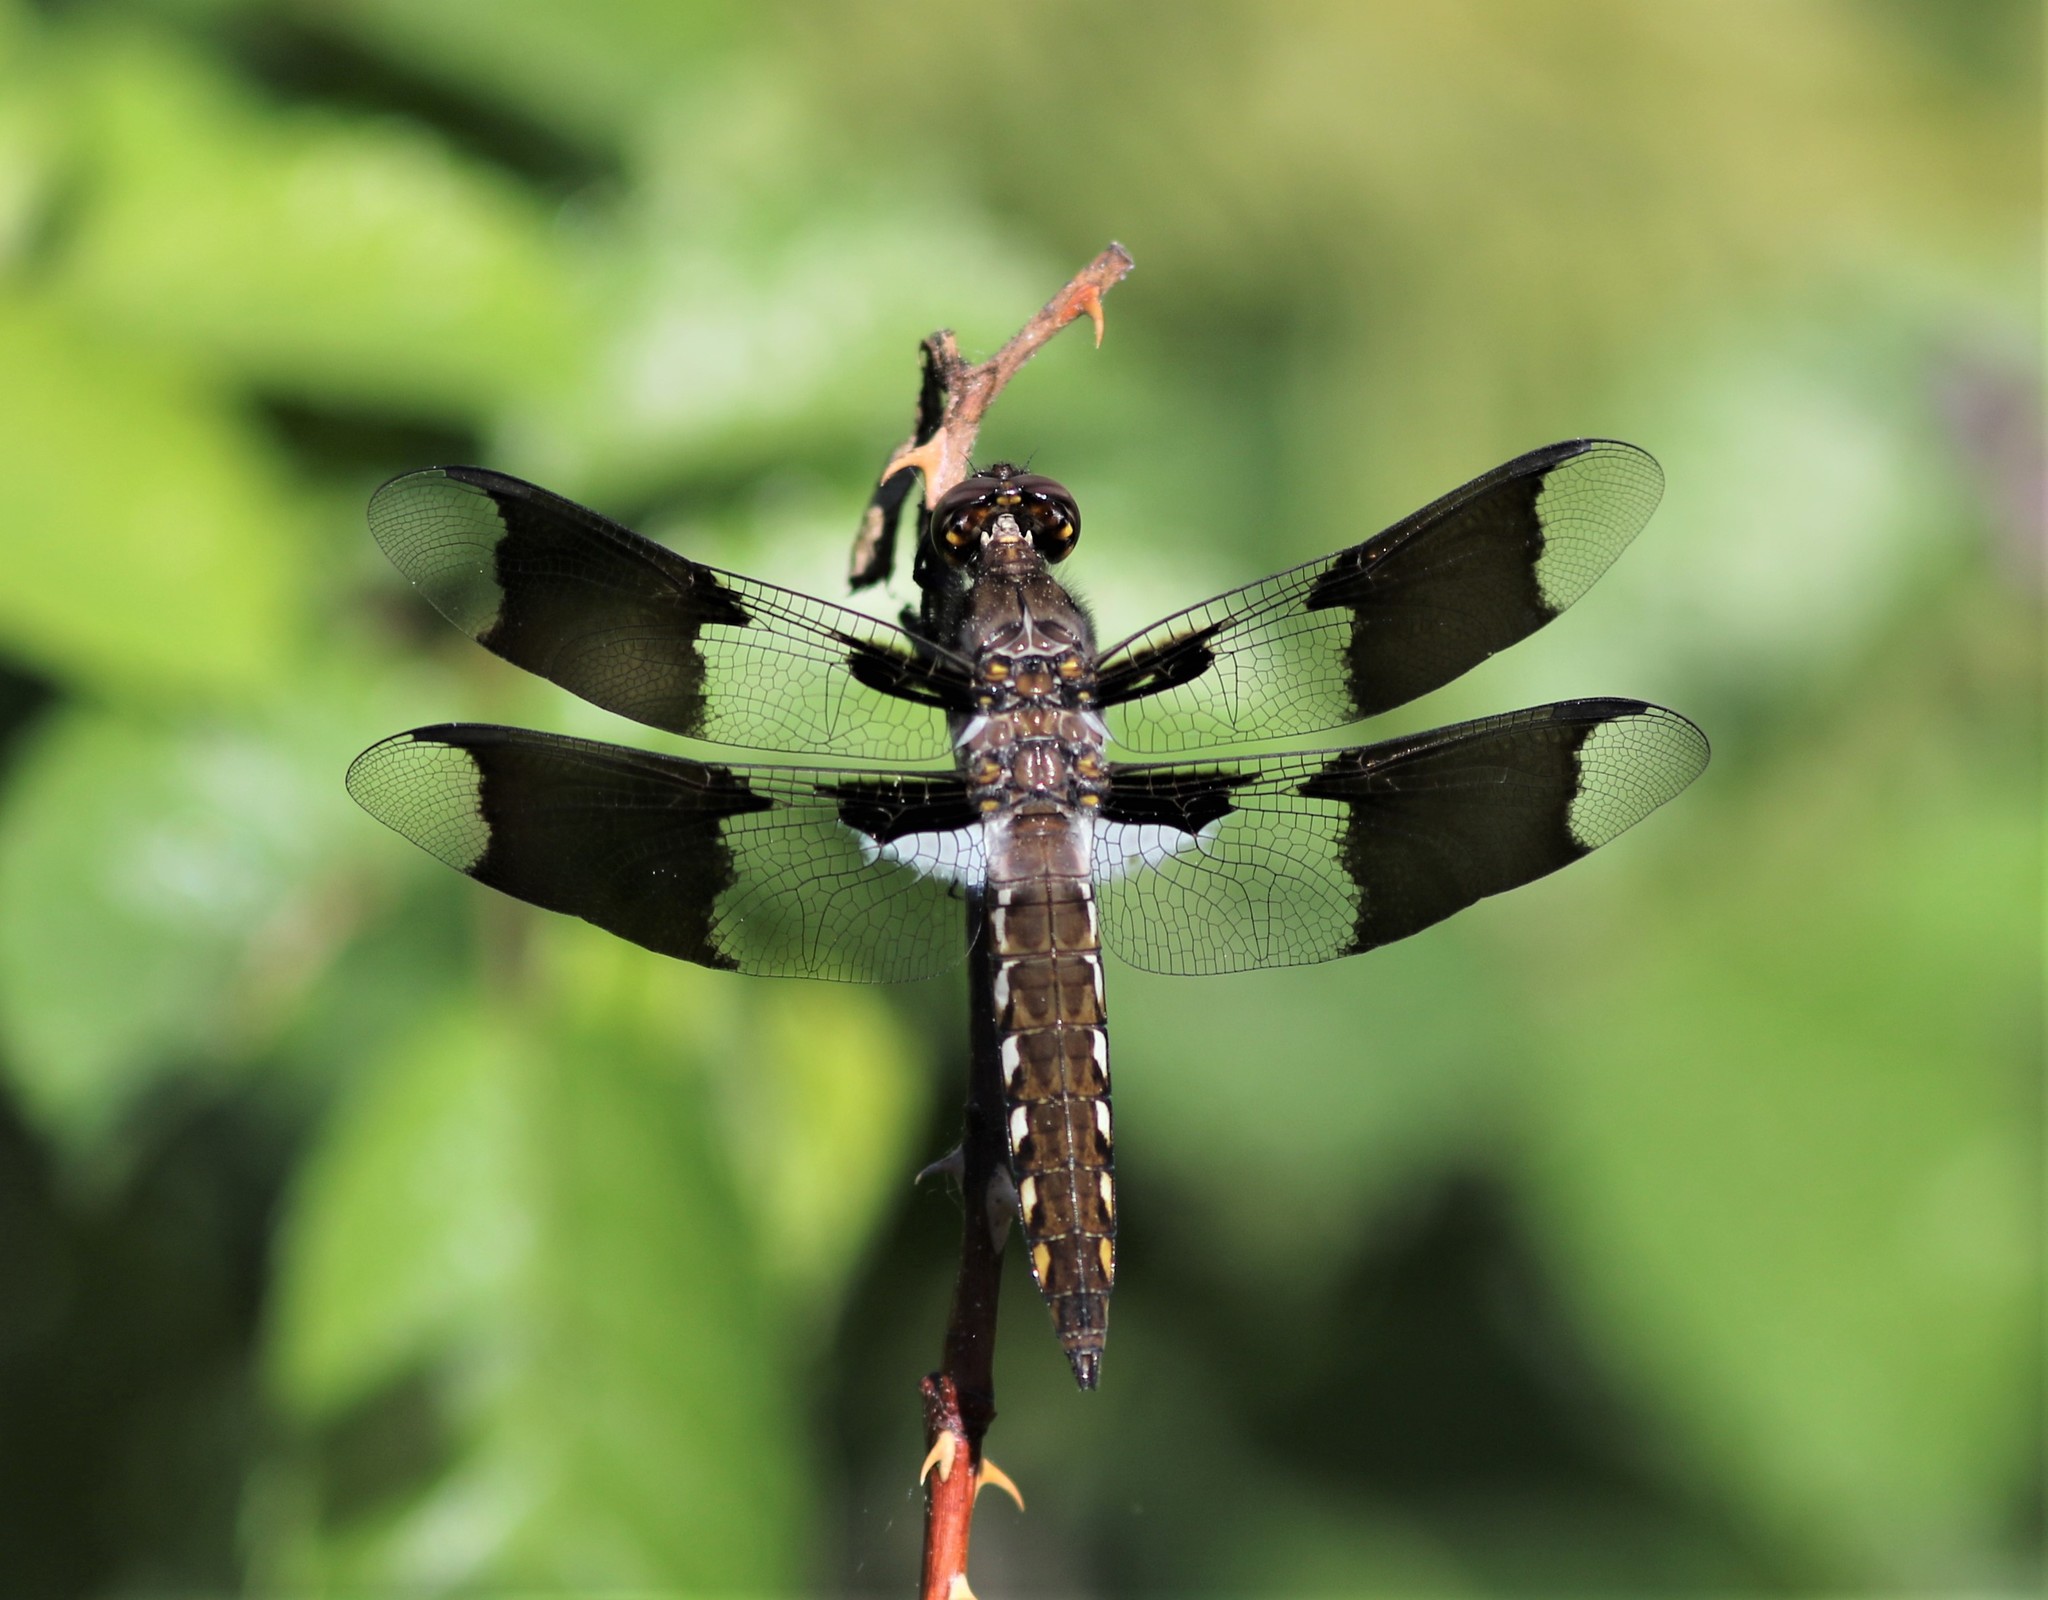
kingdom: Animalia
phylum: Arthropoda
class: Insecta
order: Odonata
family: Libellulidae
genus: Plathemis
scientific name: Plathemis lydia
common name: Common whitetail
